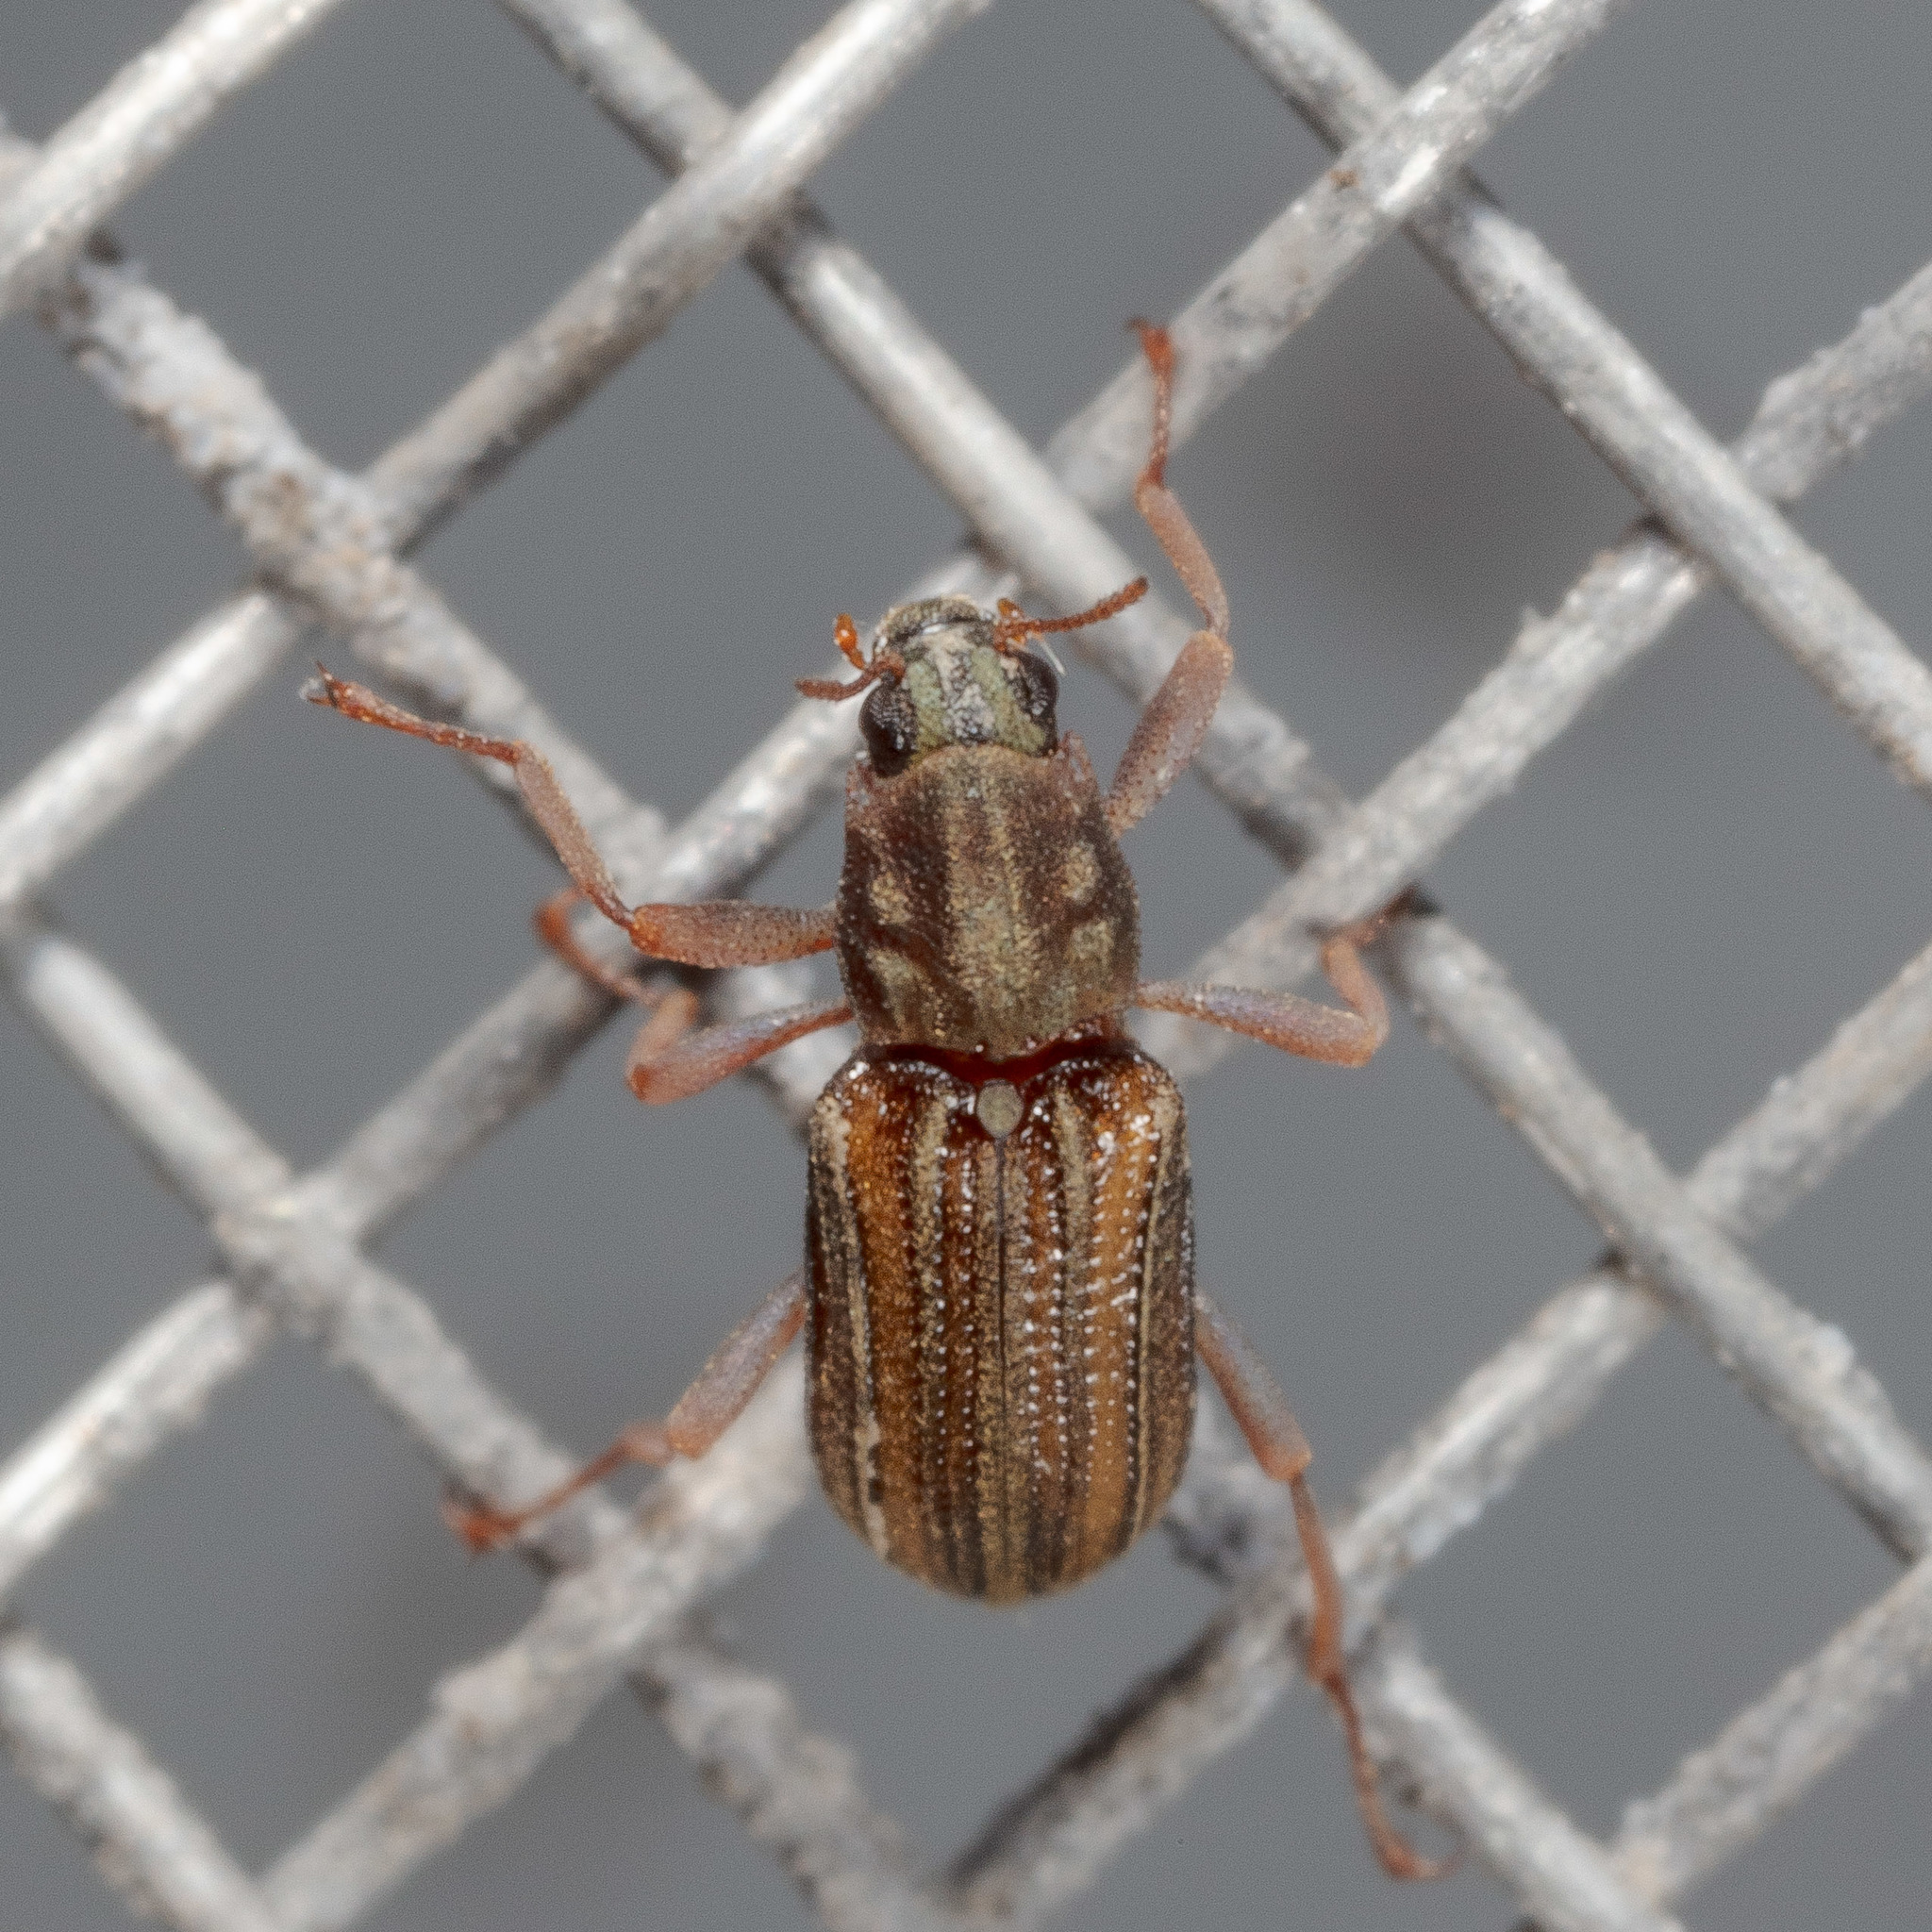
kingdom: Animalia
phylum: Arthropoda
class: Insecta
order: Coleoptera
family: Elmidae
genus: Stenelmis
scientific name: Stenelmis sexlineata
